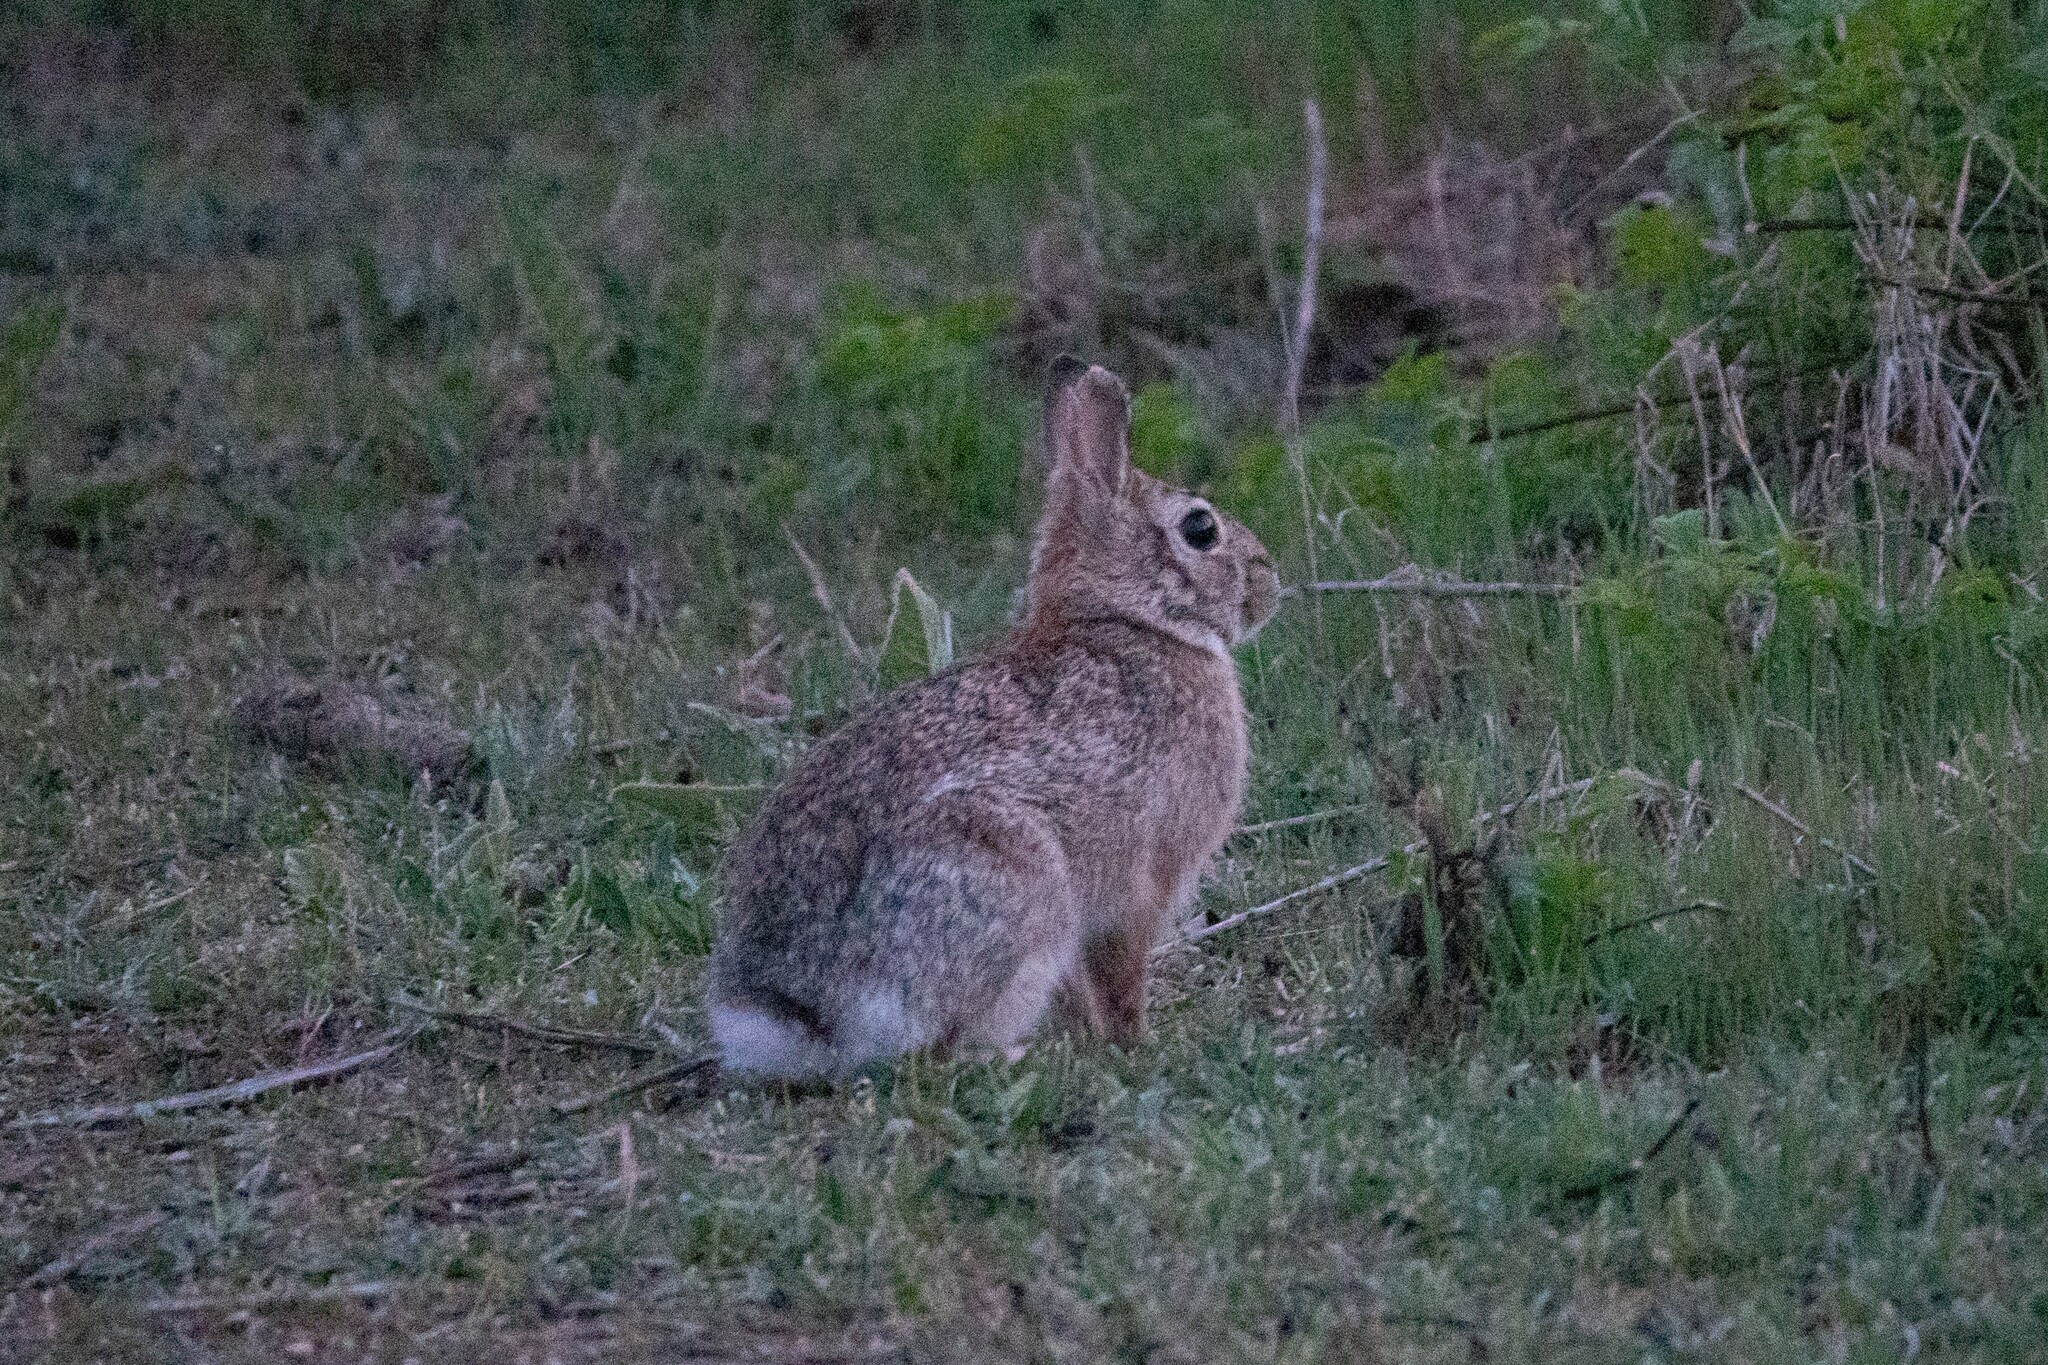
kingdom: Animalia
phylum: Chordata
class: Mammalia
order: Lagomorpha
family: Leporidae
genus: Sylvilagus
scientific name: Sylvilagus floridanus
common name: Eastern cottontail
